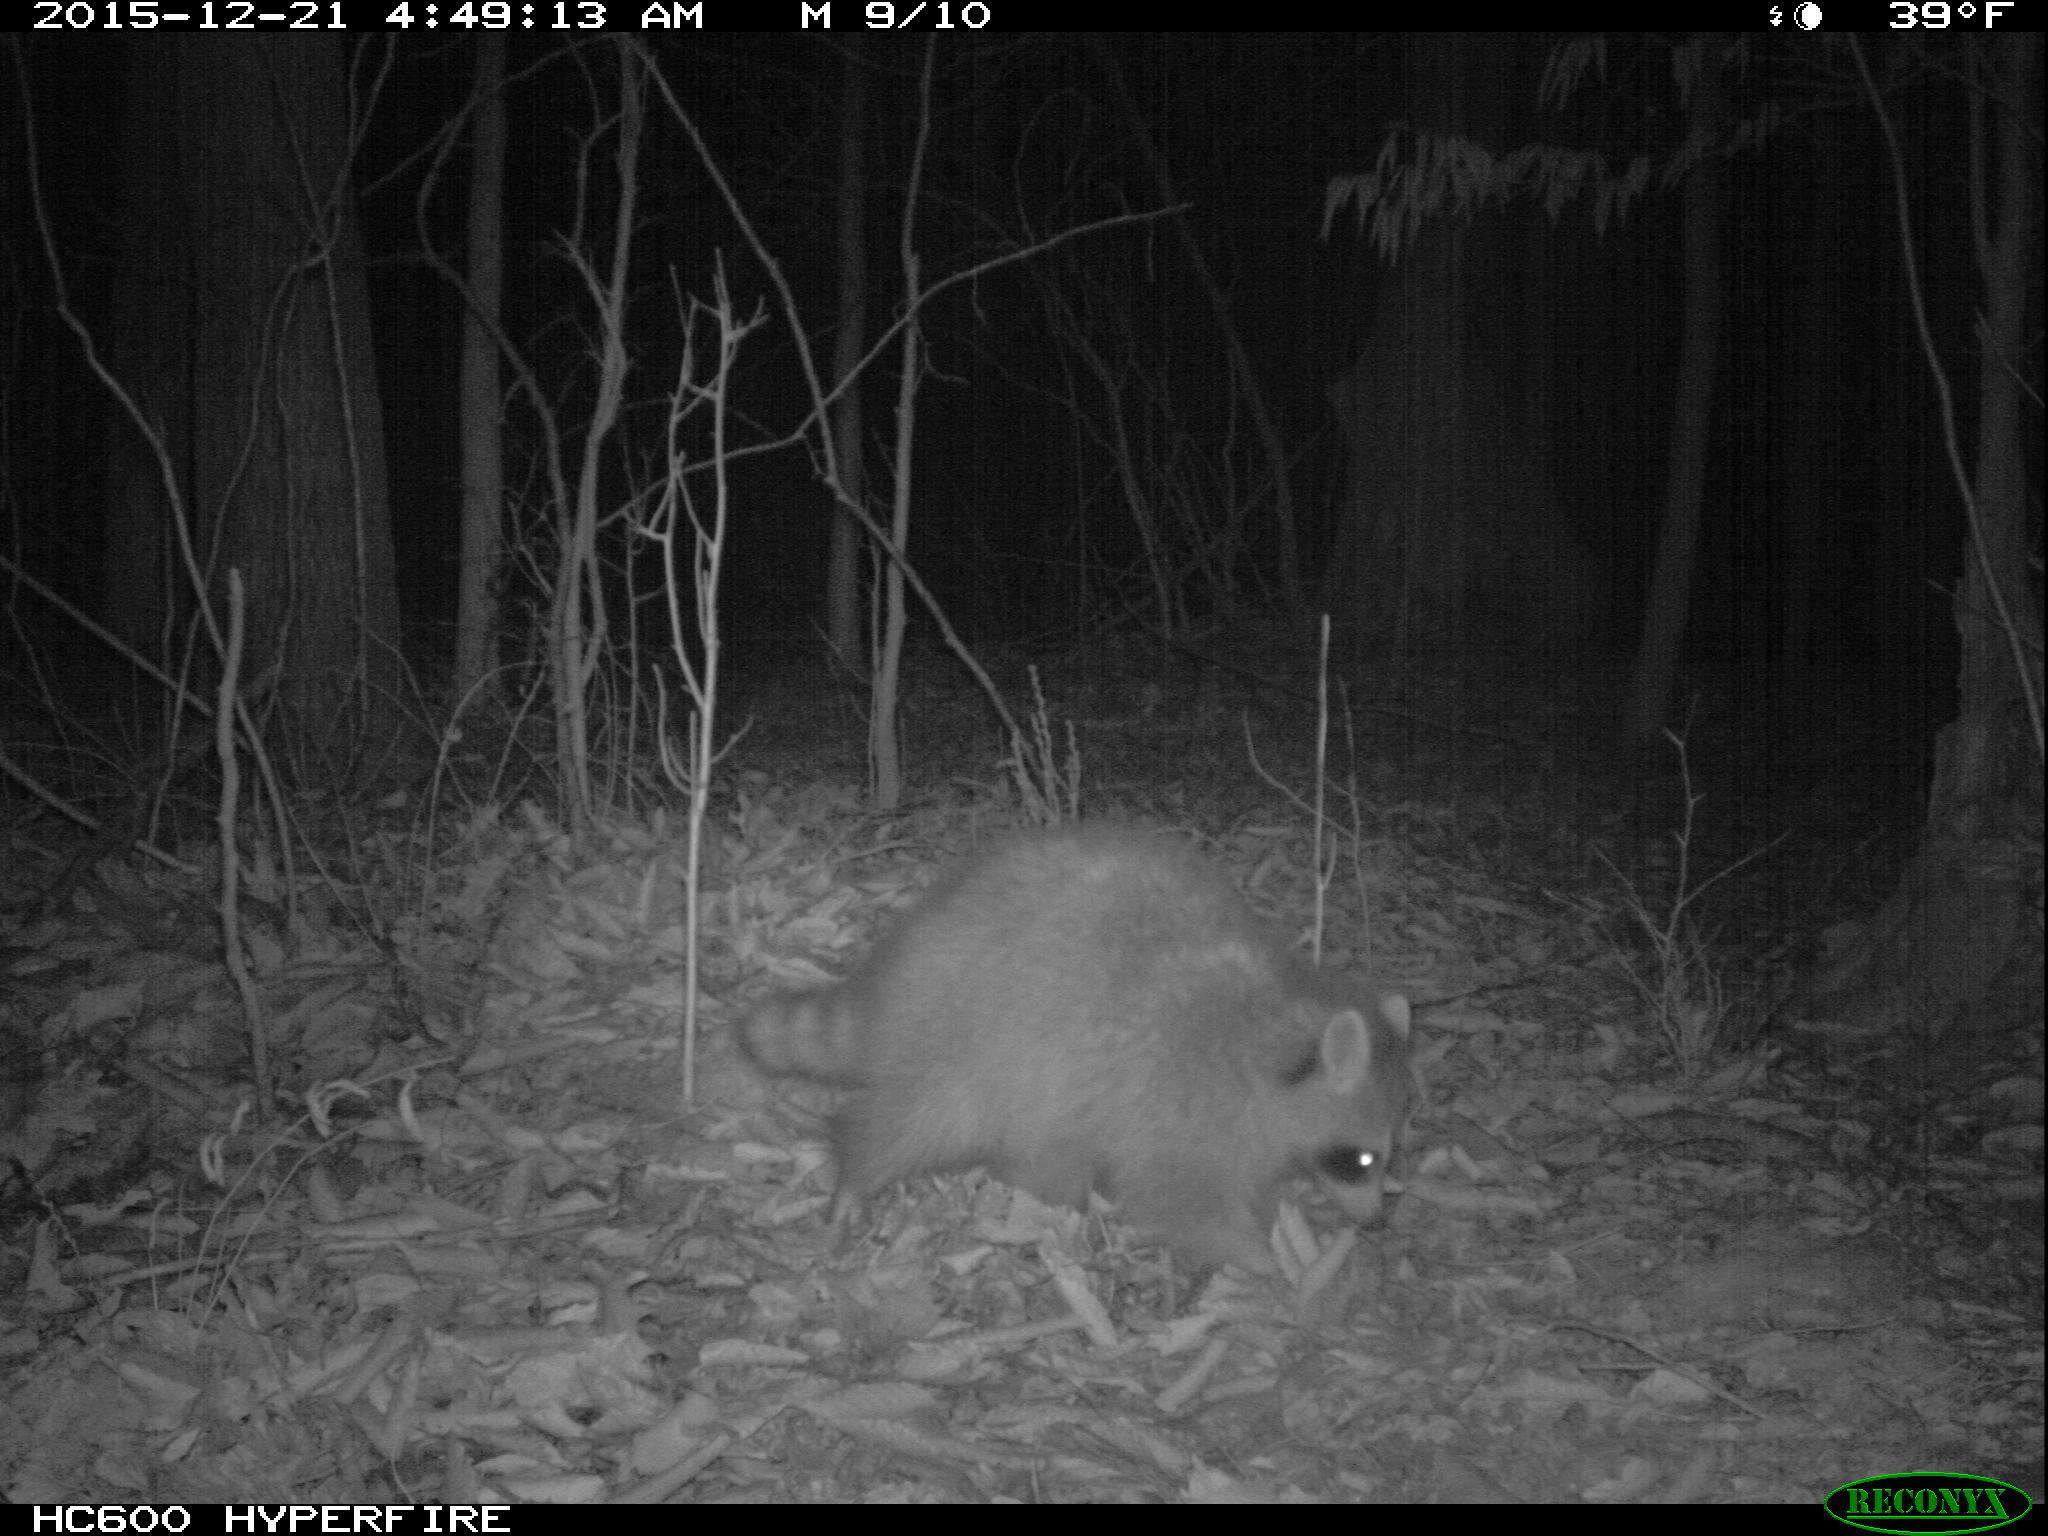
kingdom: Animalia
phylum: Chordata
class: Mammalia
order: Carnivora
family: Procyonidae
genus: Procyon
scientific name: Procyon lotor
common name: Raccoon
